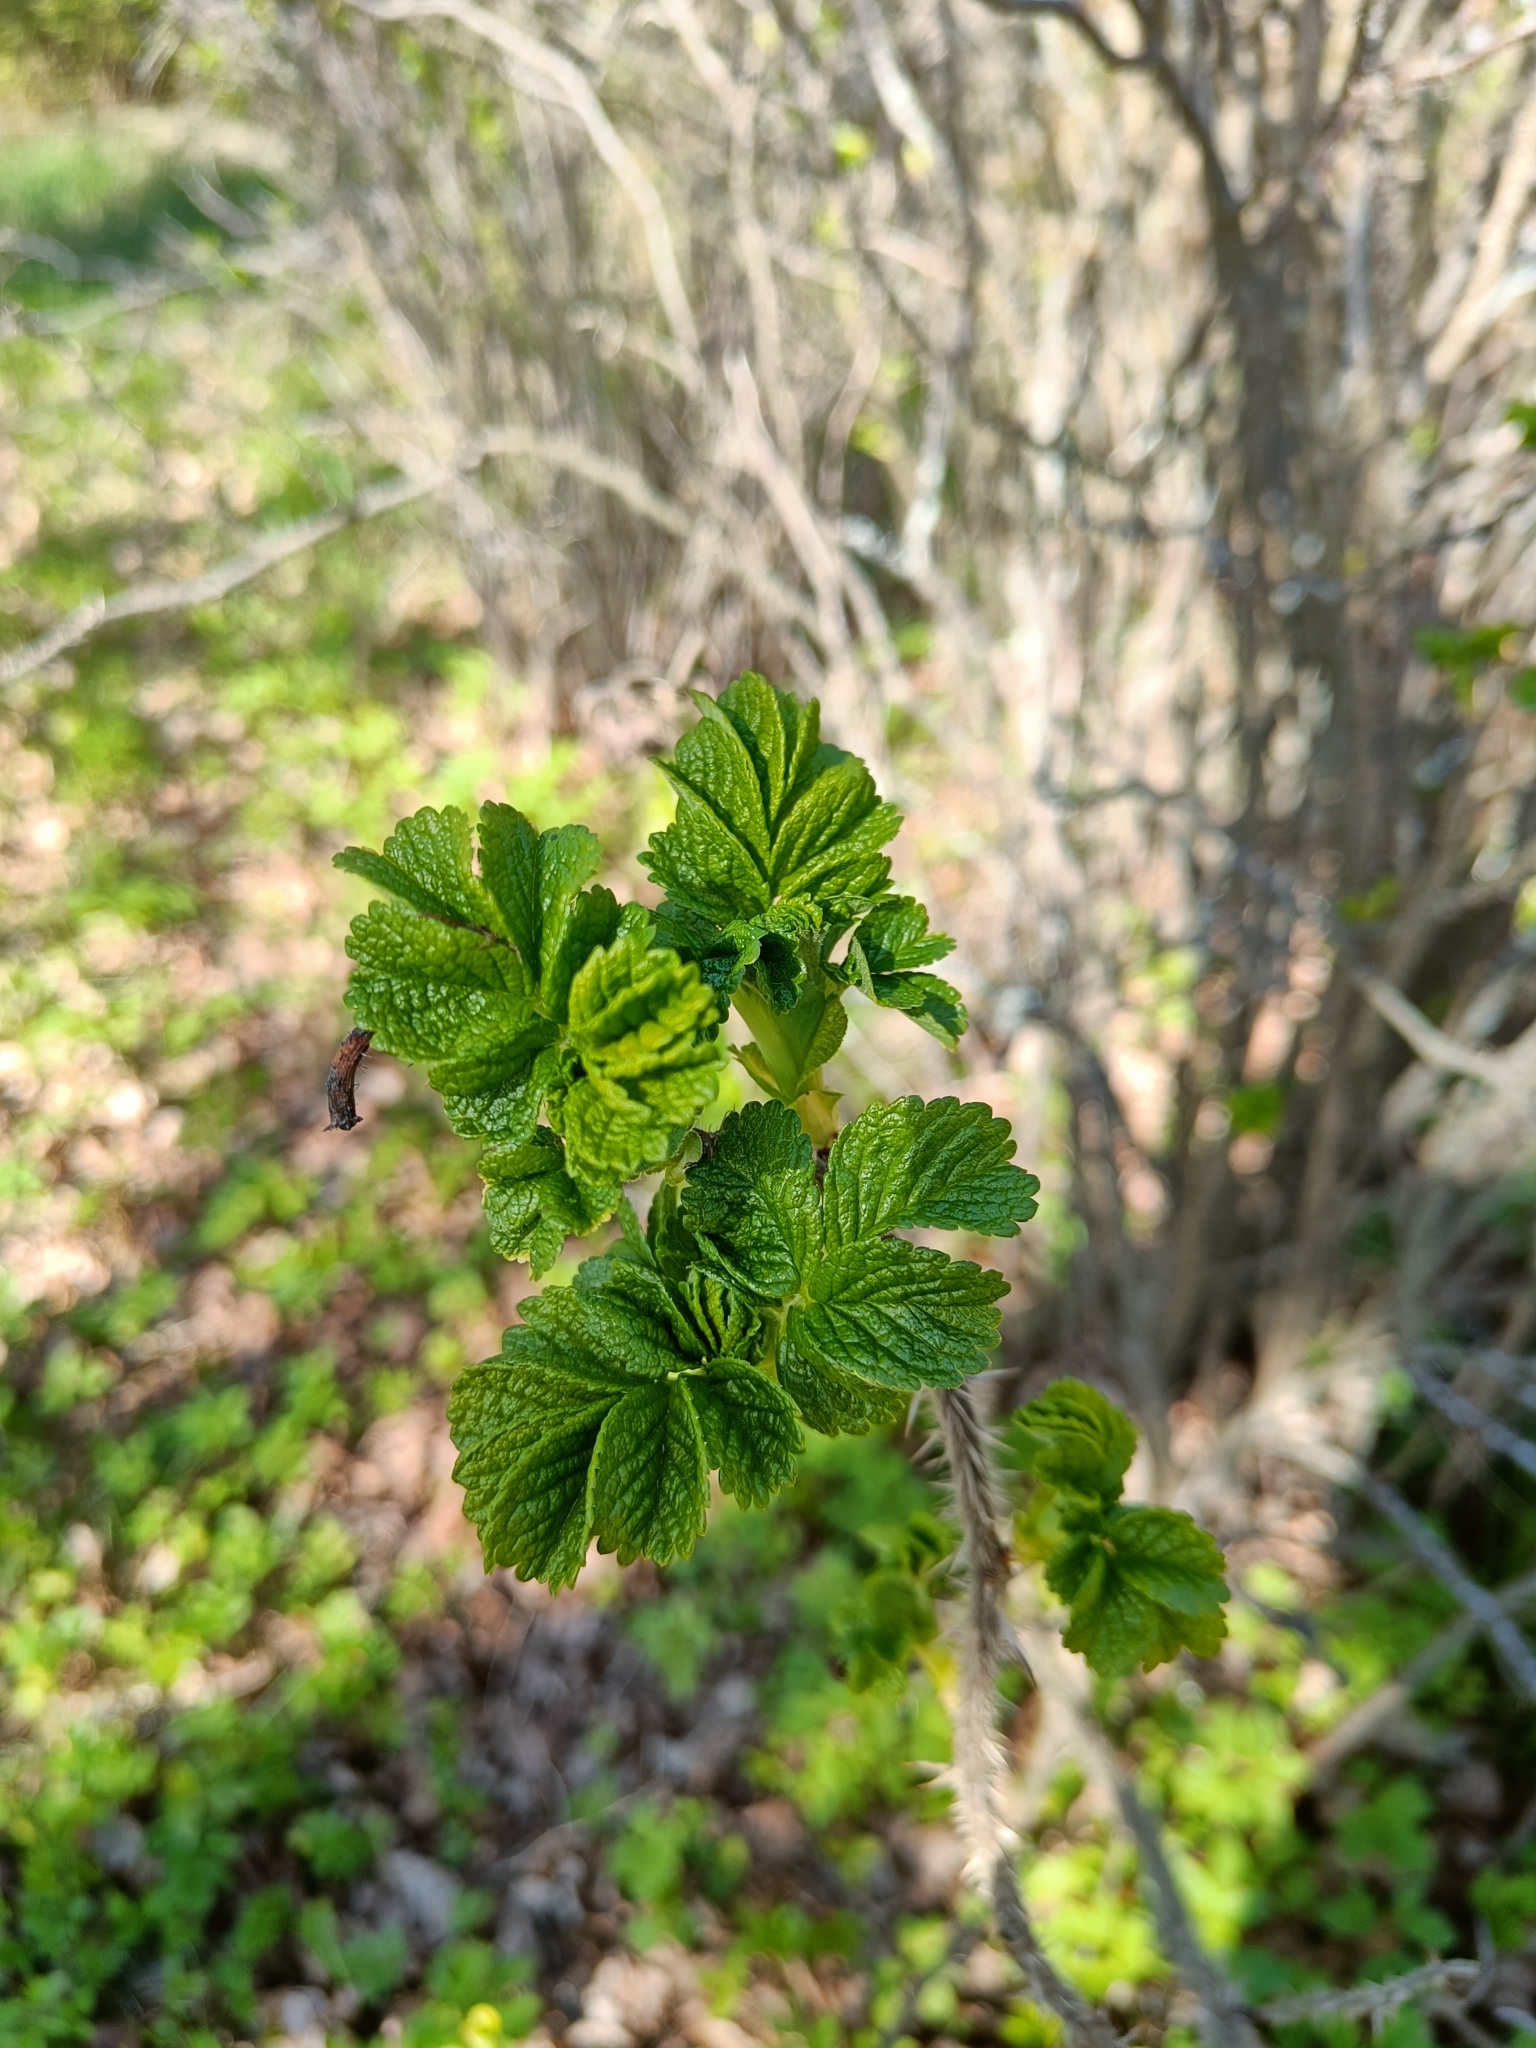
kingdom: Plantae
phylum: Tracheophyta
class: Magnoliopsida
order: Rosales
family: Rosaceae
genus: Rosa
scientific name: Rosa rugosa
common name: Japanese rose
